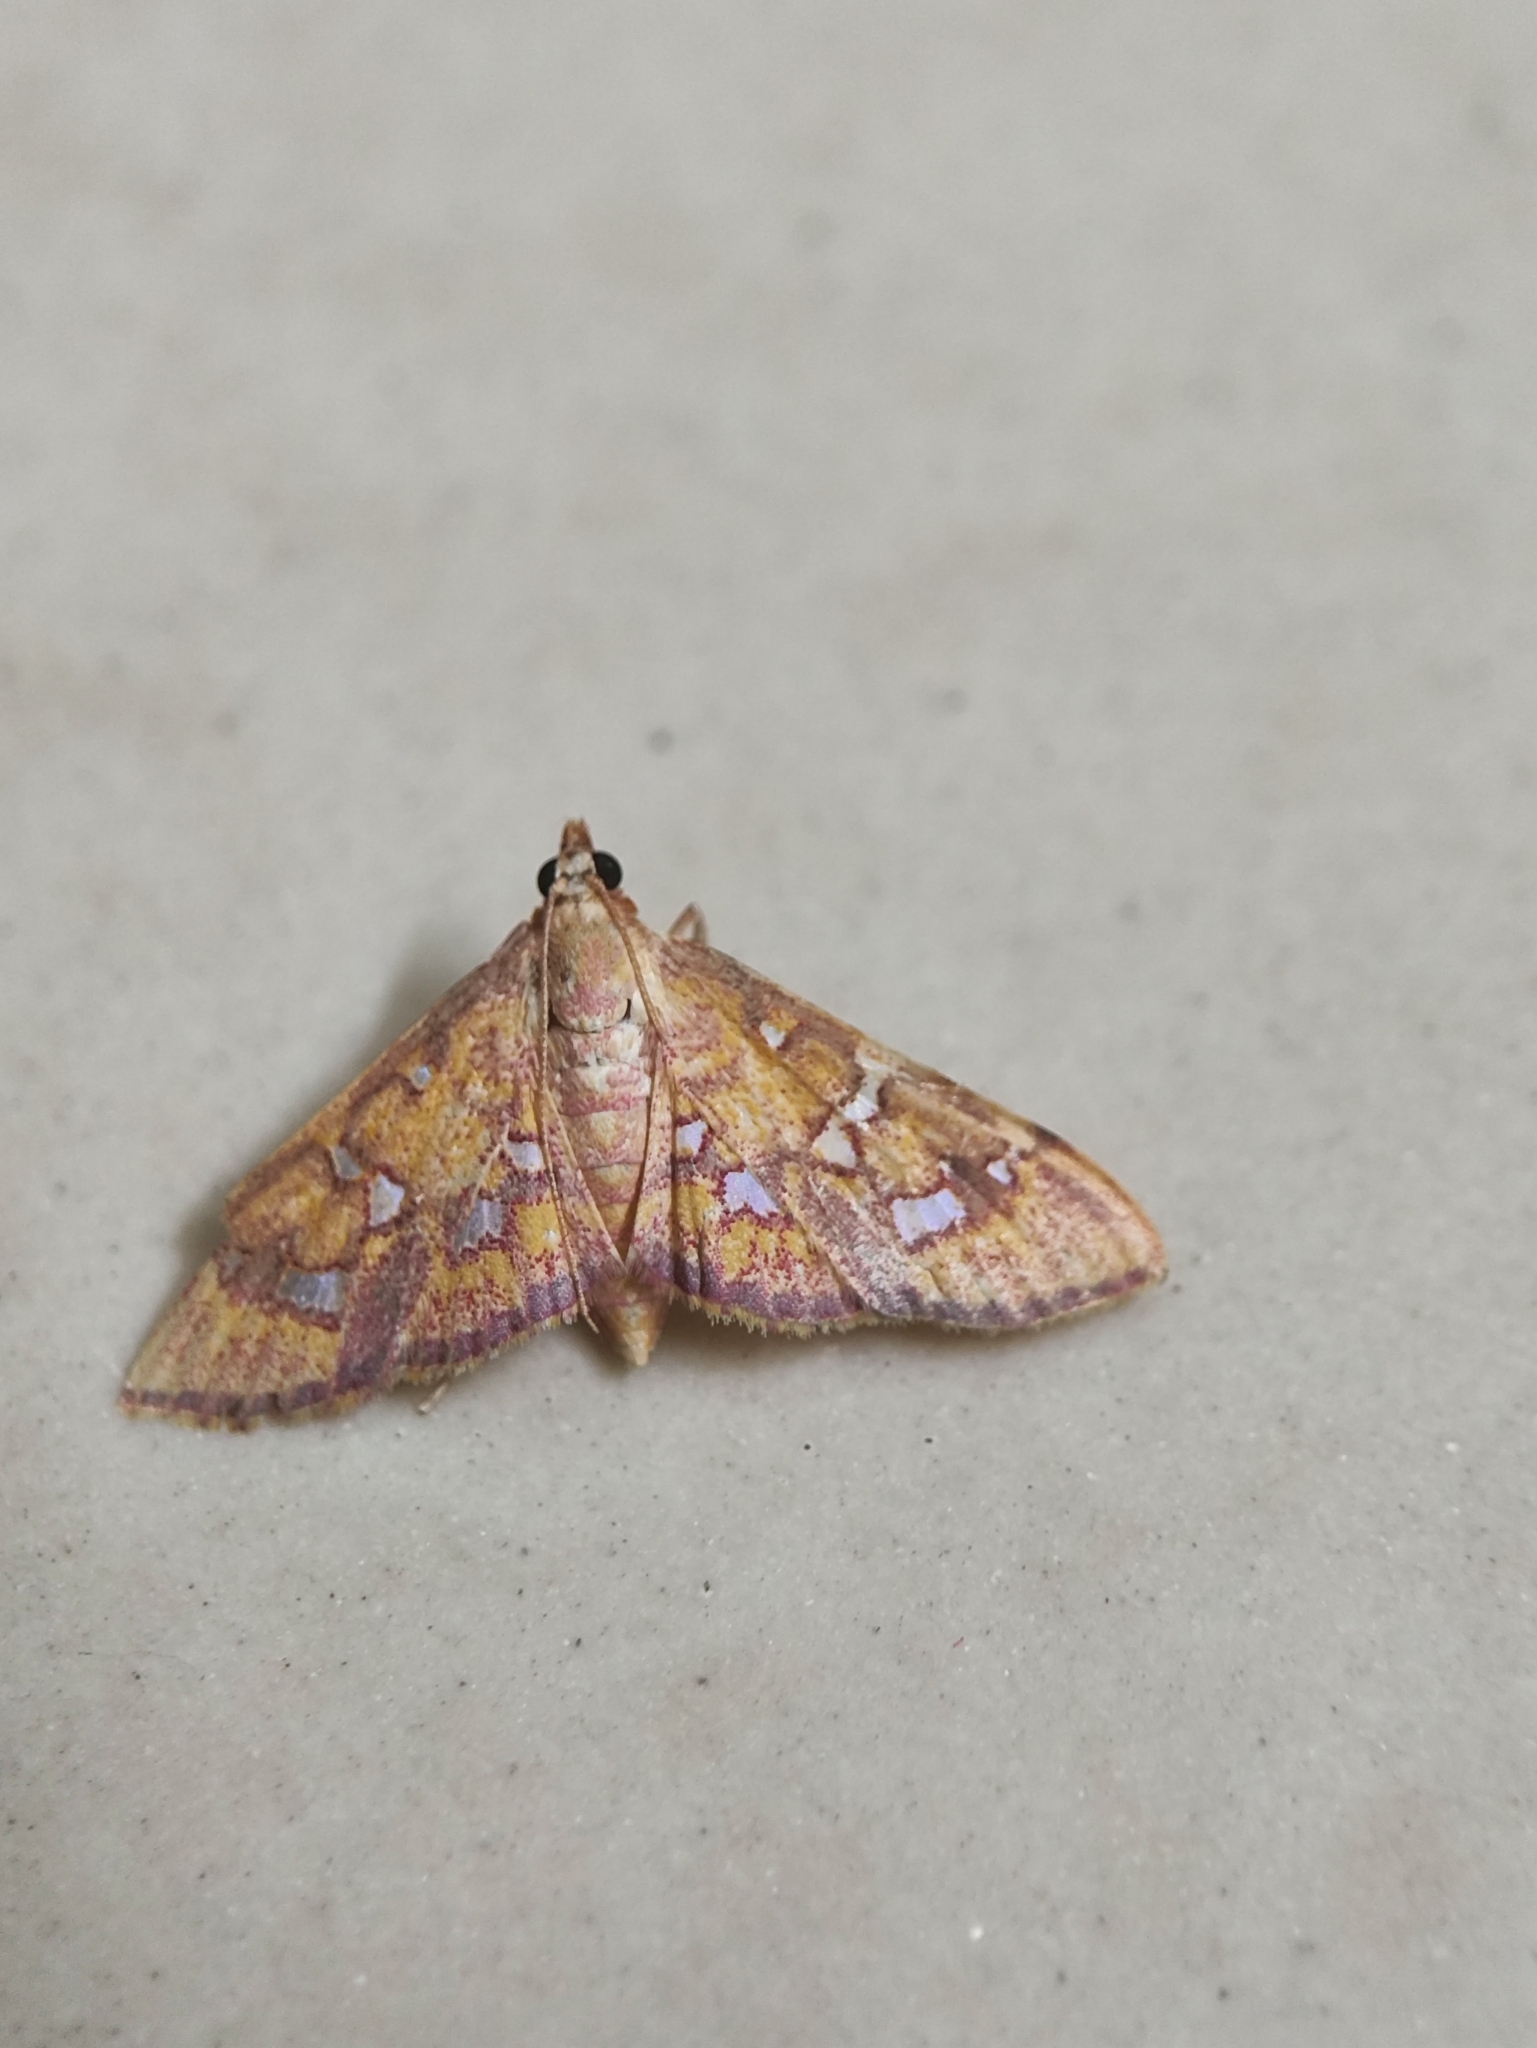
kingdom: Animalia
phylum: Arthropoda
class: Insecta
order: Lepidoptera
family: Crambidae
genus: Ischnurges
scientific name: Ischnurges gratiosalis
